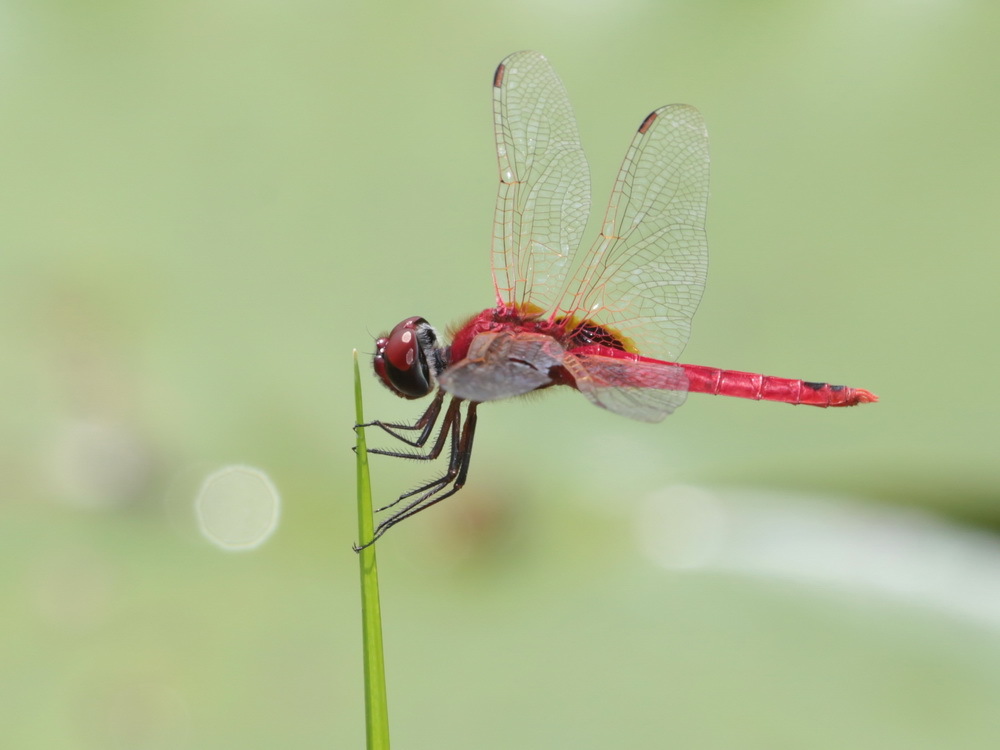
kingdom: Animalia
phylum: Arthropoda
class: Insecta
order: Odonata
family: Libellulidae
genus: Urothemis
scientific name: Urothemis signata
